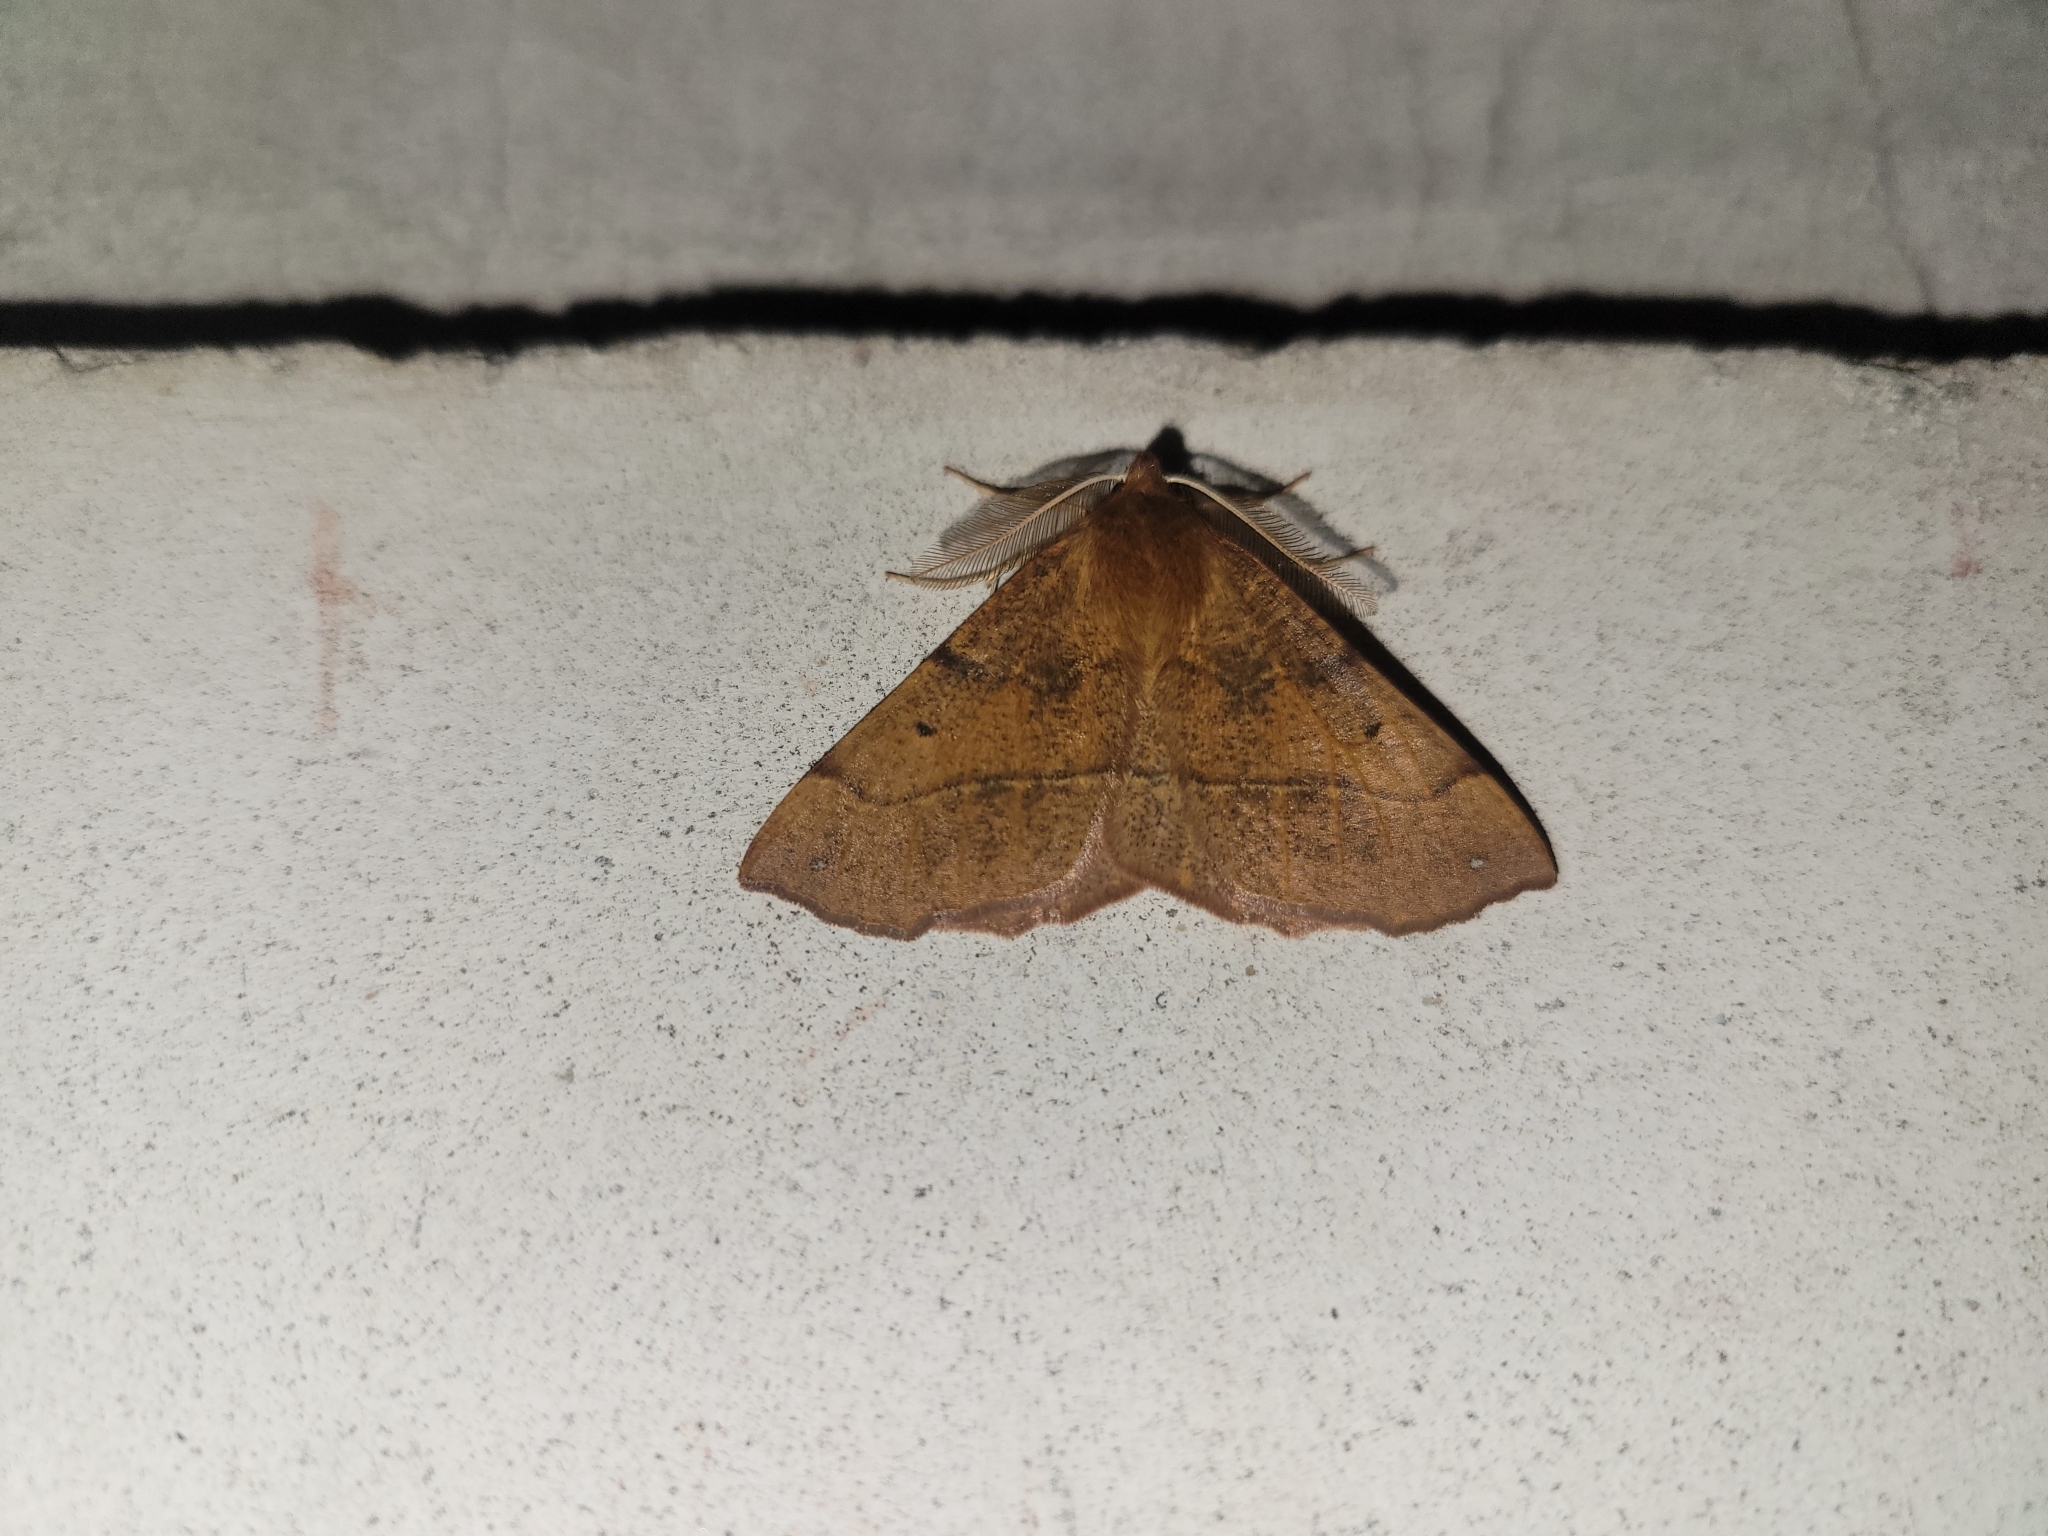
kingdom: Animalia
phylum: Arthropoda
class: Insecta
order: Lepidoptera
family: Geometridae
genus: Colotois
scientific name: Colotois pennaria
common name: Feathered thorn
